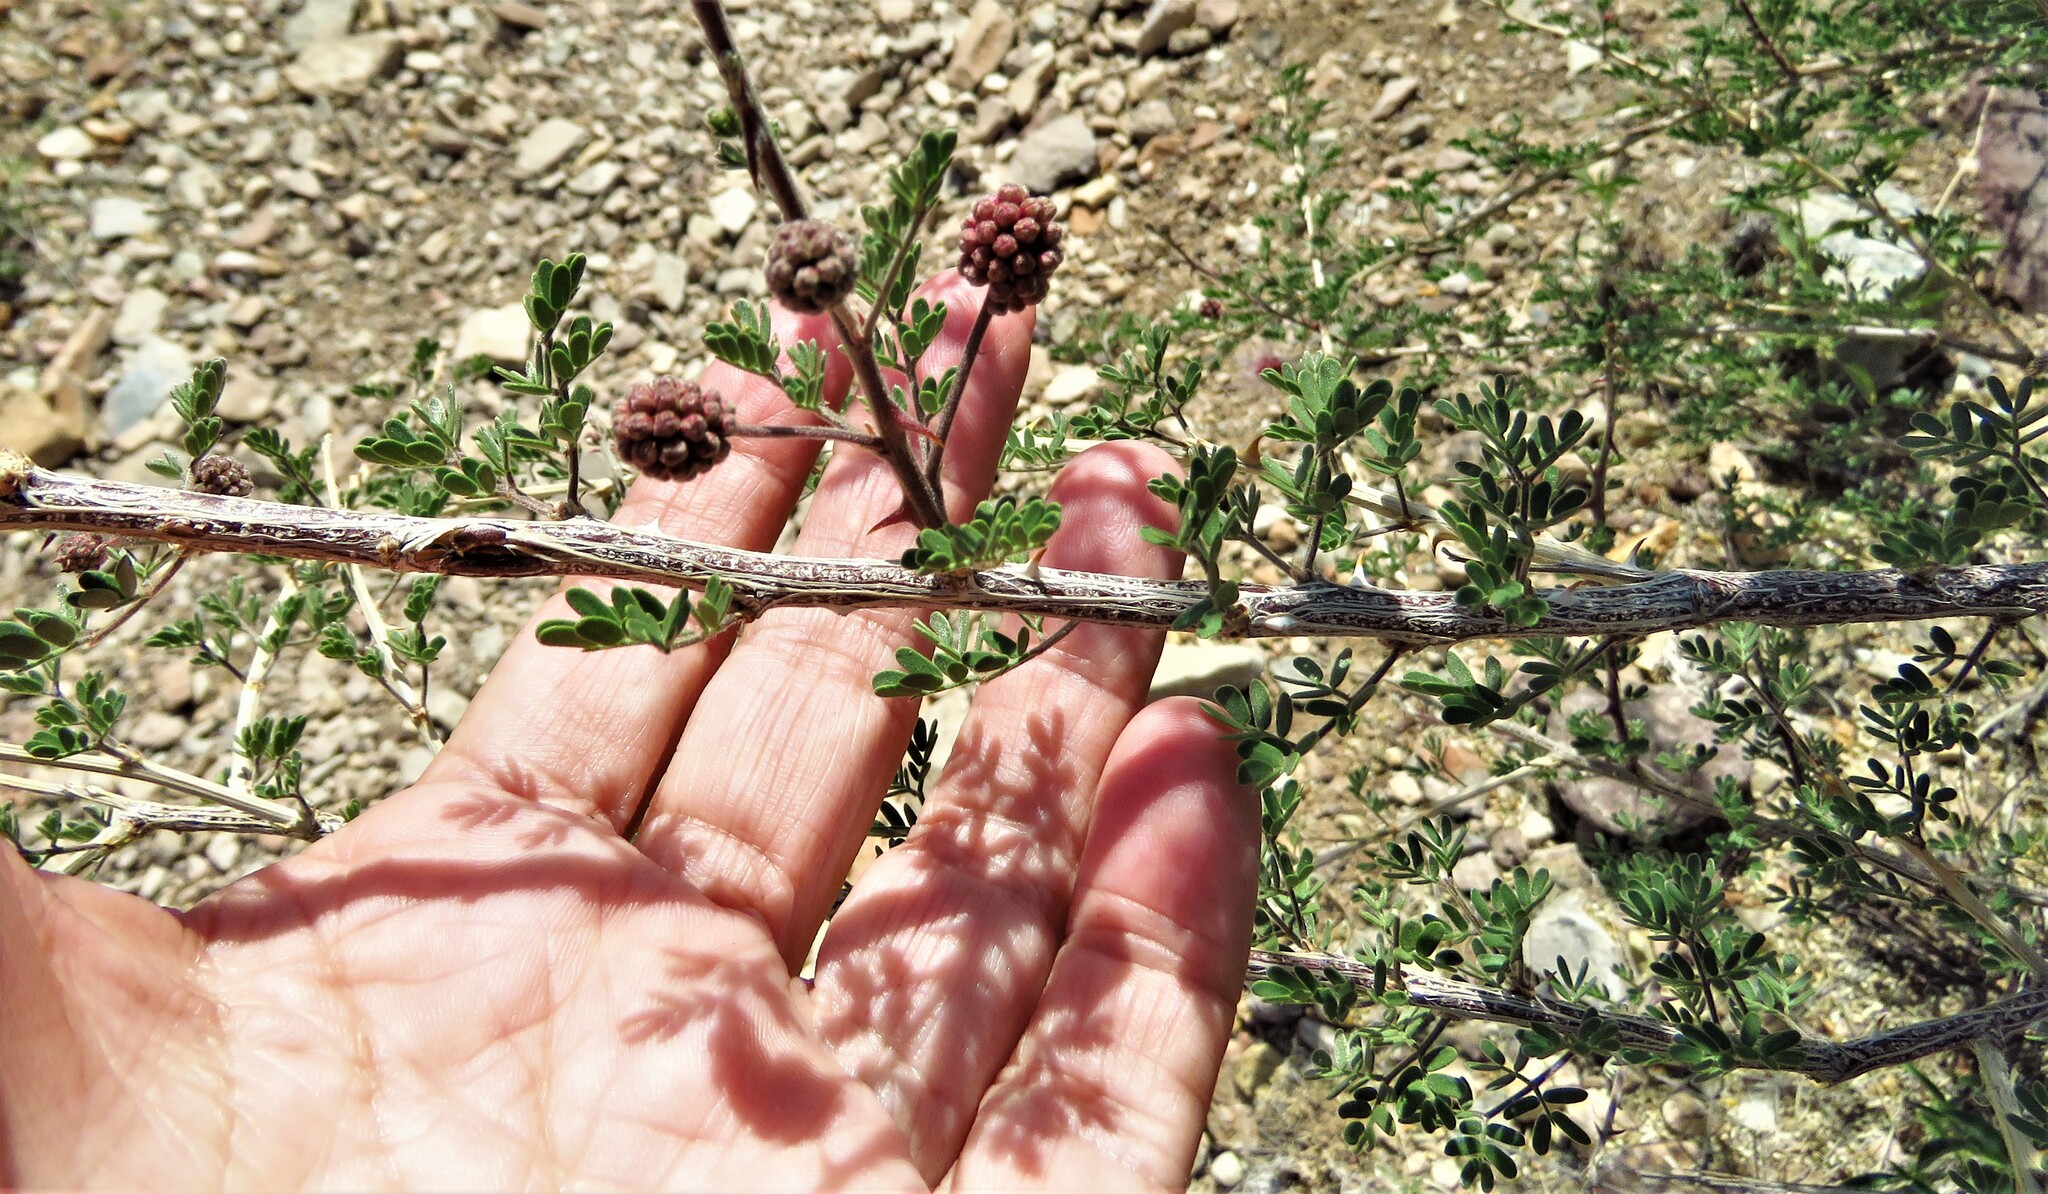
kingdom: Plantae
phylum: Tracheophyta
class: Magnoliopsida
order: Fabales
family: Fabaceae
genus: Mimosa
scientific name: Mimosa emoryana
